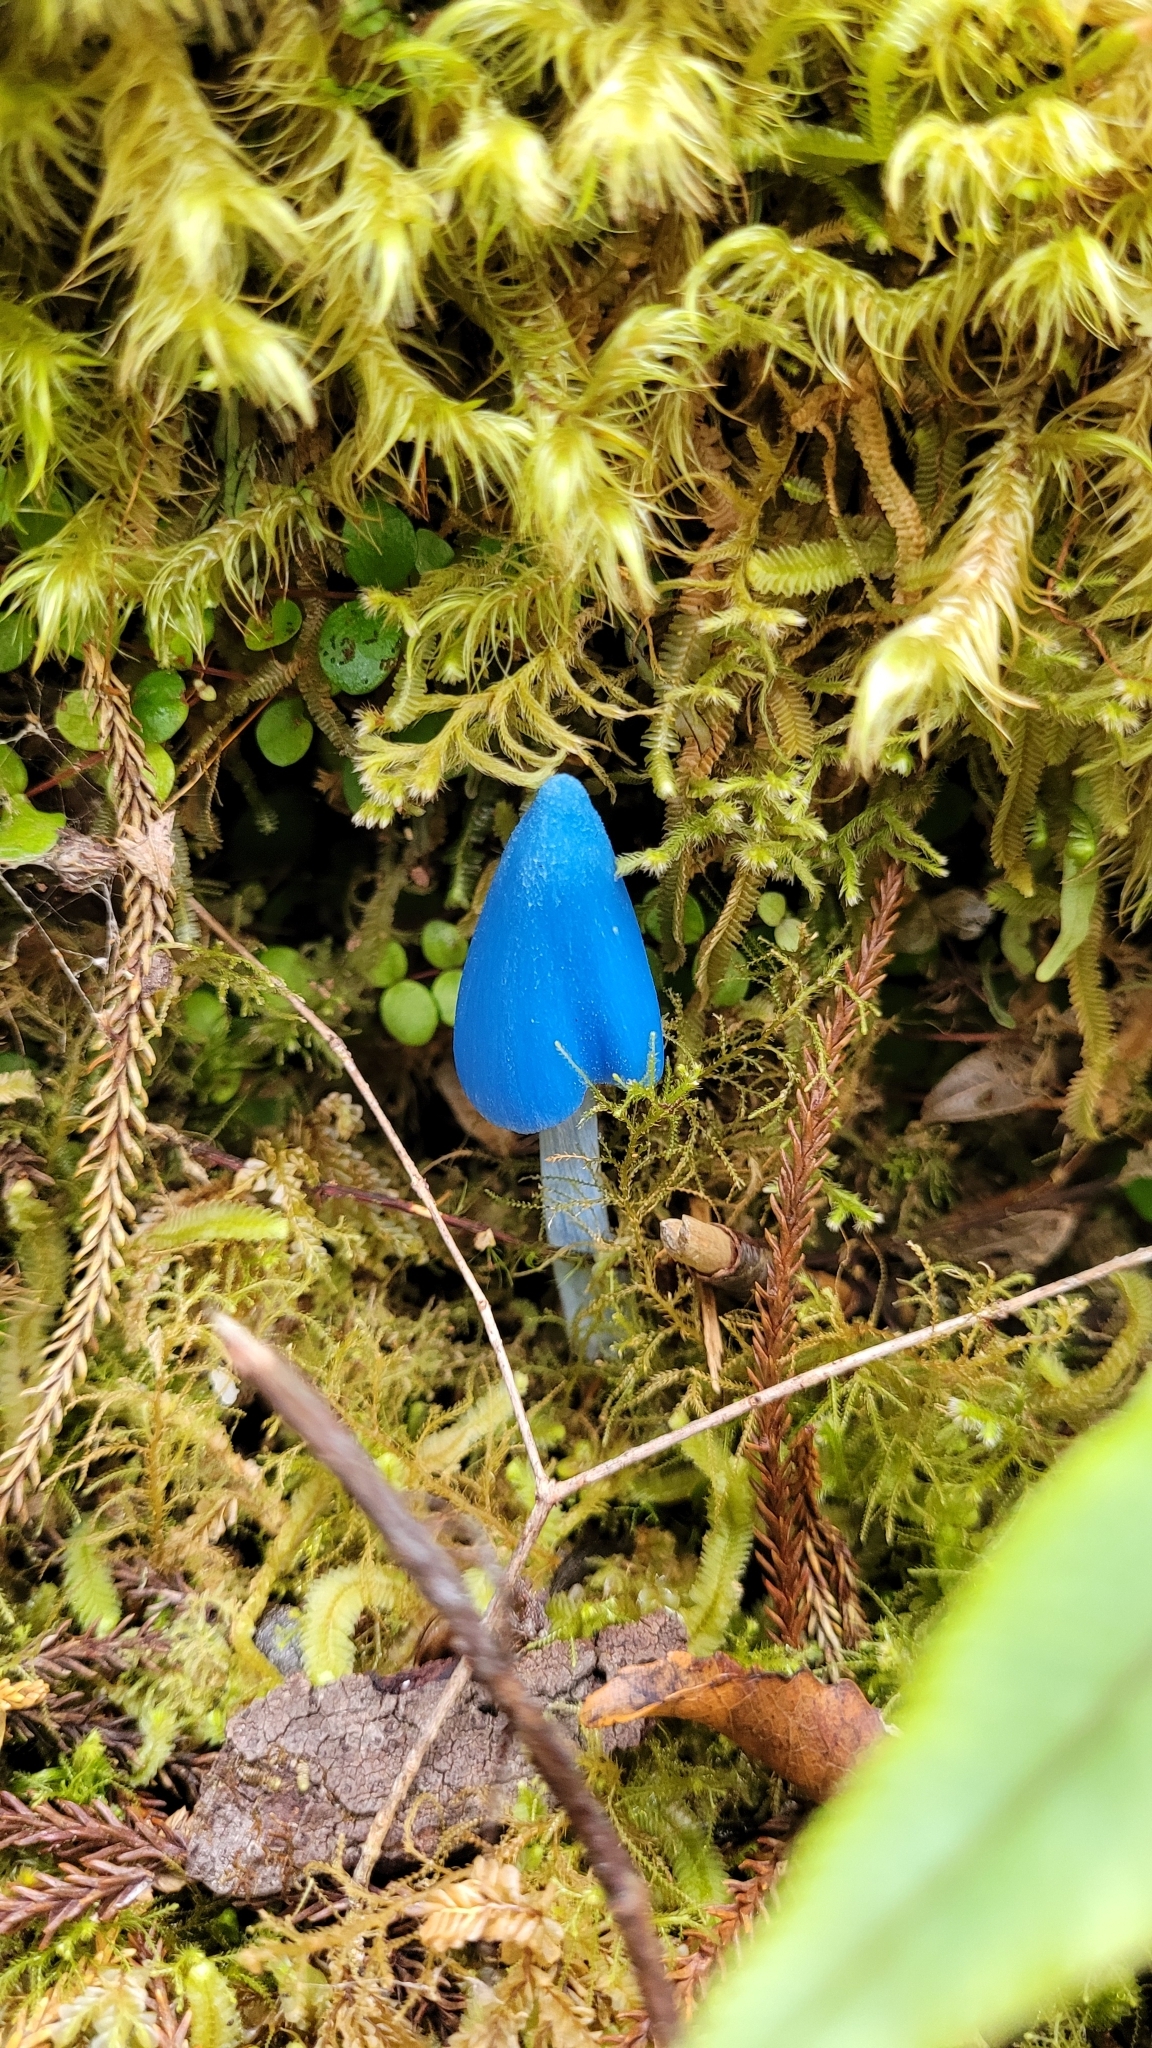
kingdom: Fungi
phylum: Basidiomycota
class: Agaricomycetes
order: Agaricales
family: Entolomataceae
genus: Entoloma
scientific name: Entoloma hochstetteri
